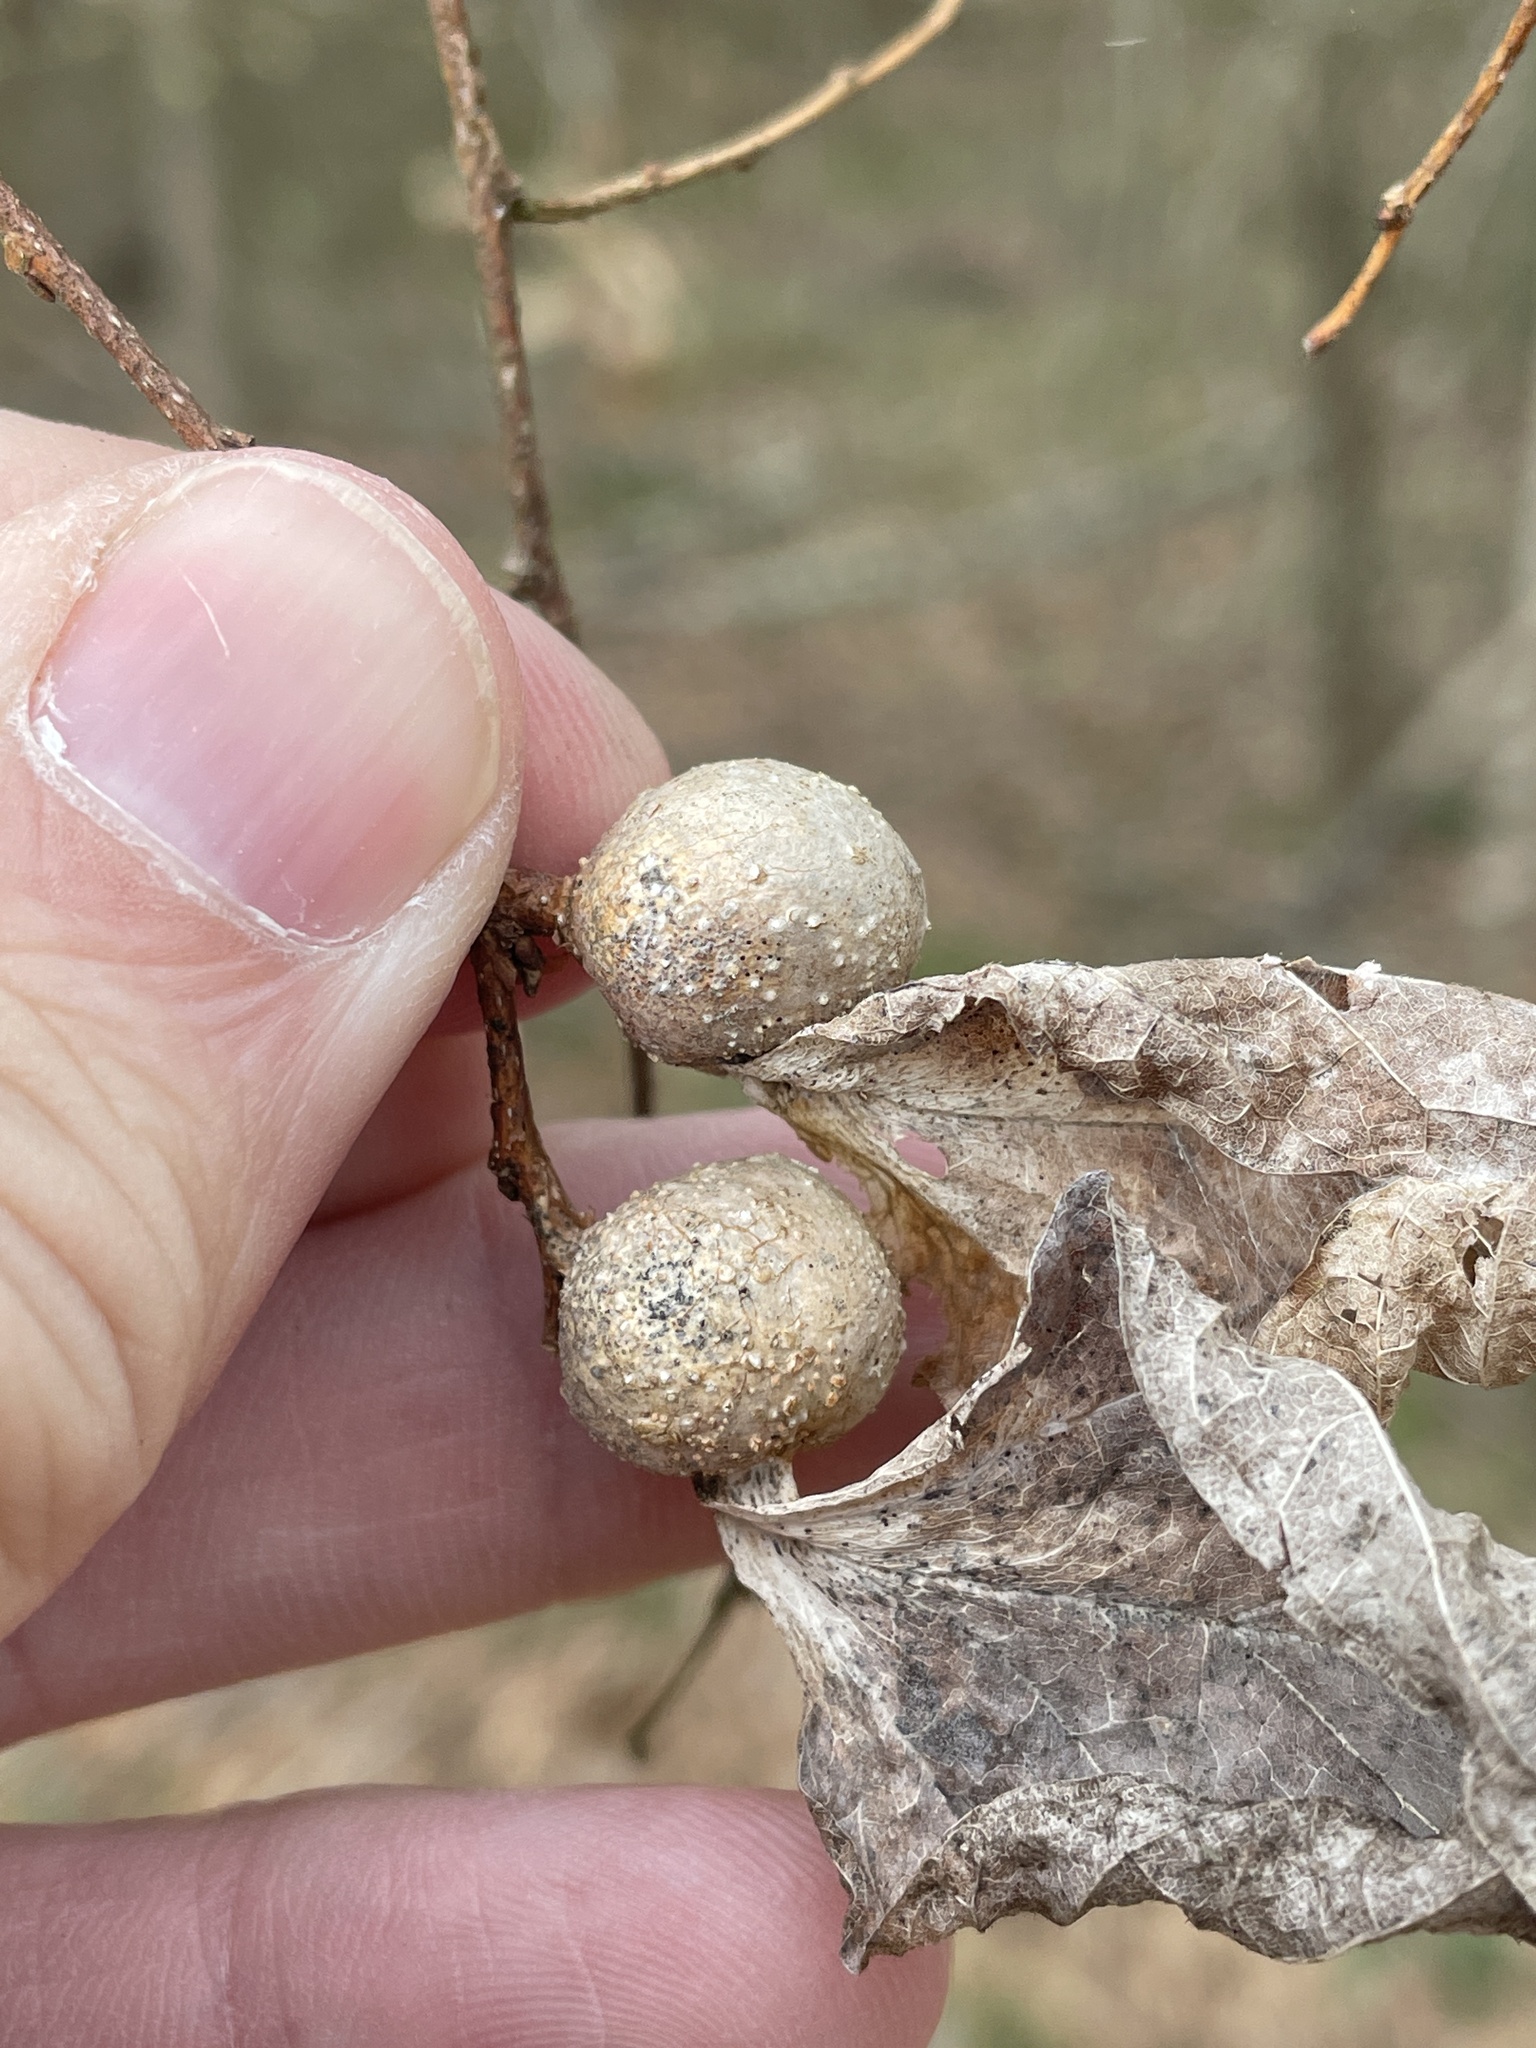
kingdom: Animalia
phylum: Arthropoda
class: Insecta
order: Hemiptera
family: Aphalaridae
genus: Pachypsylla
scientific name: Pachypsylla venusta
